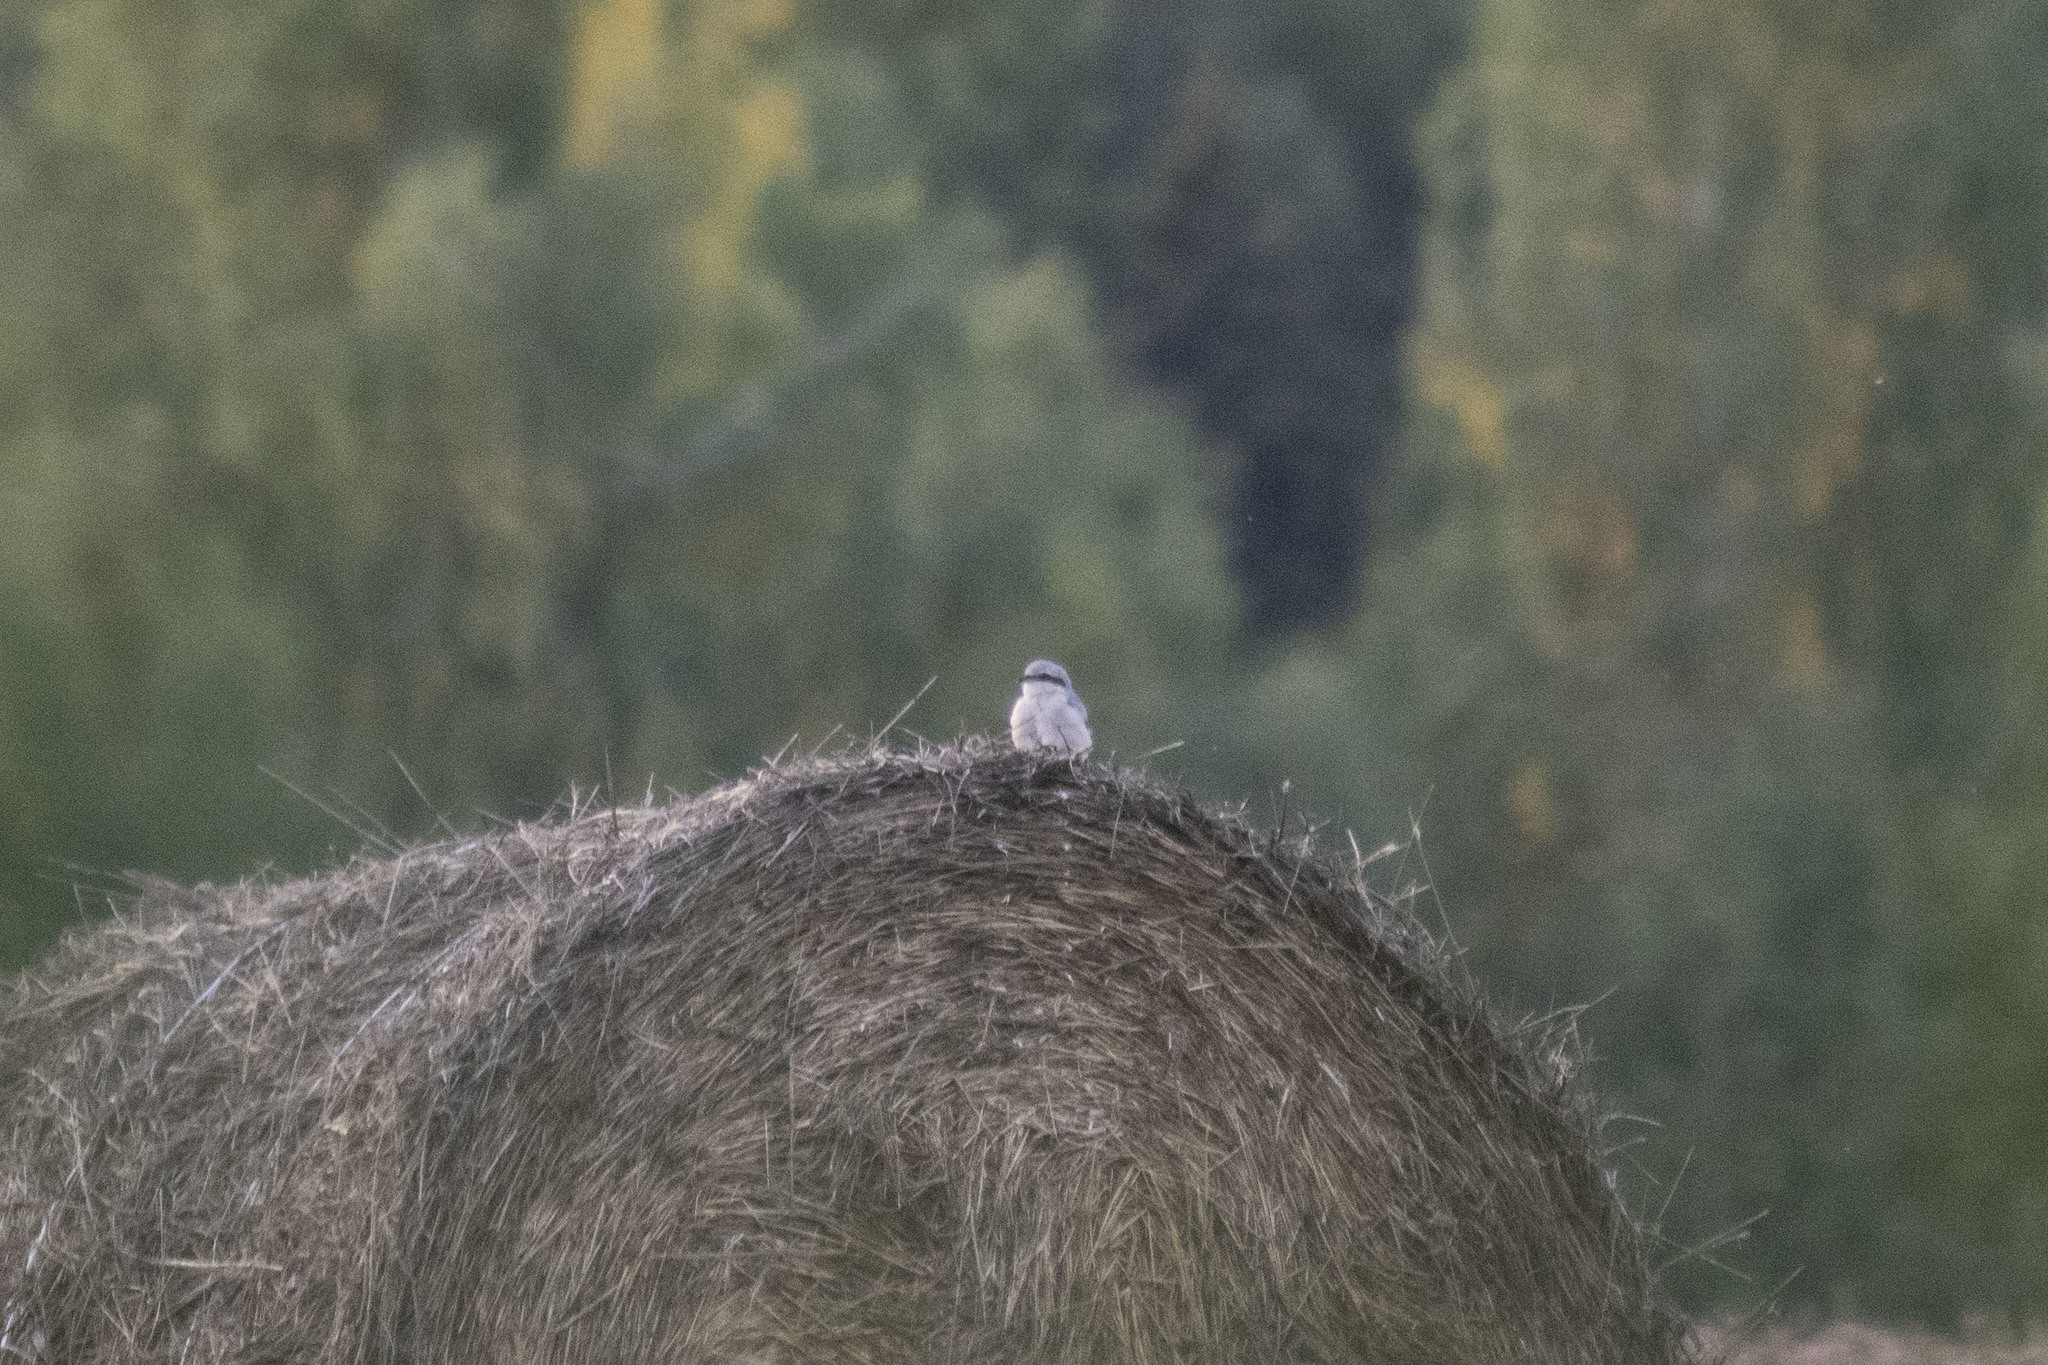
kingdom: Animalia
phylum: Chordata
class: Aves
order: Passeriformes
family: Laniidae
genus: Lanius
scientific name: Lanius excubitor
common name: Great grey shrike
